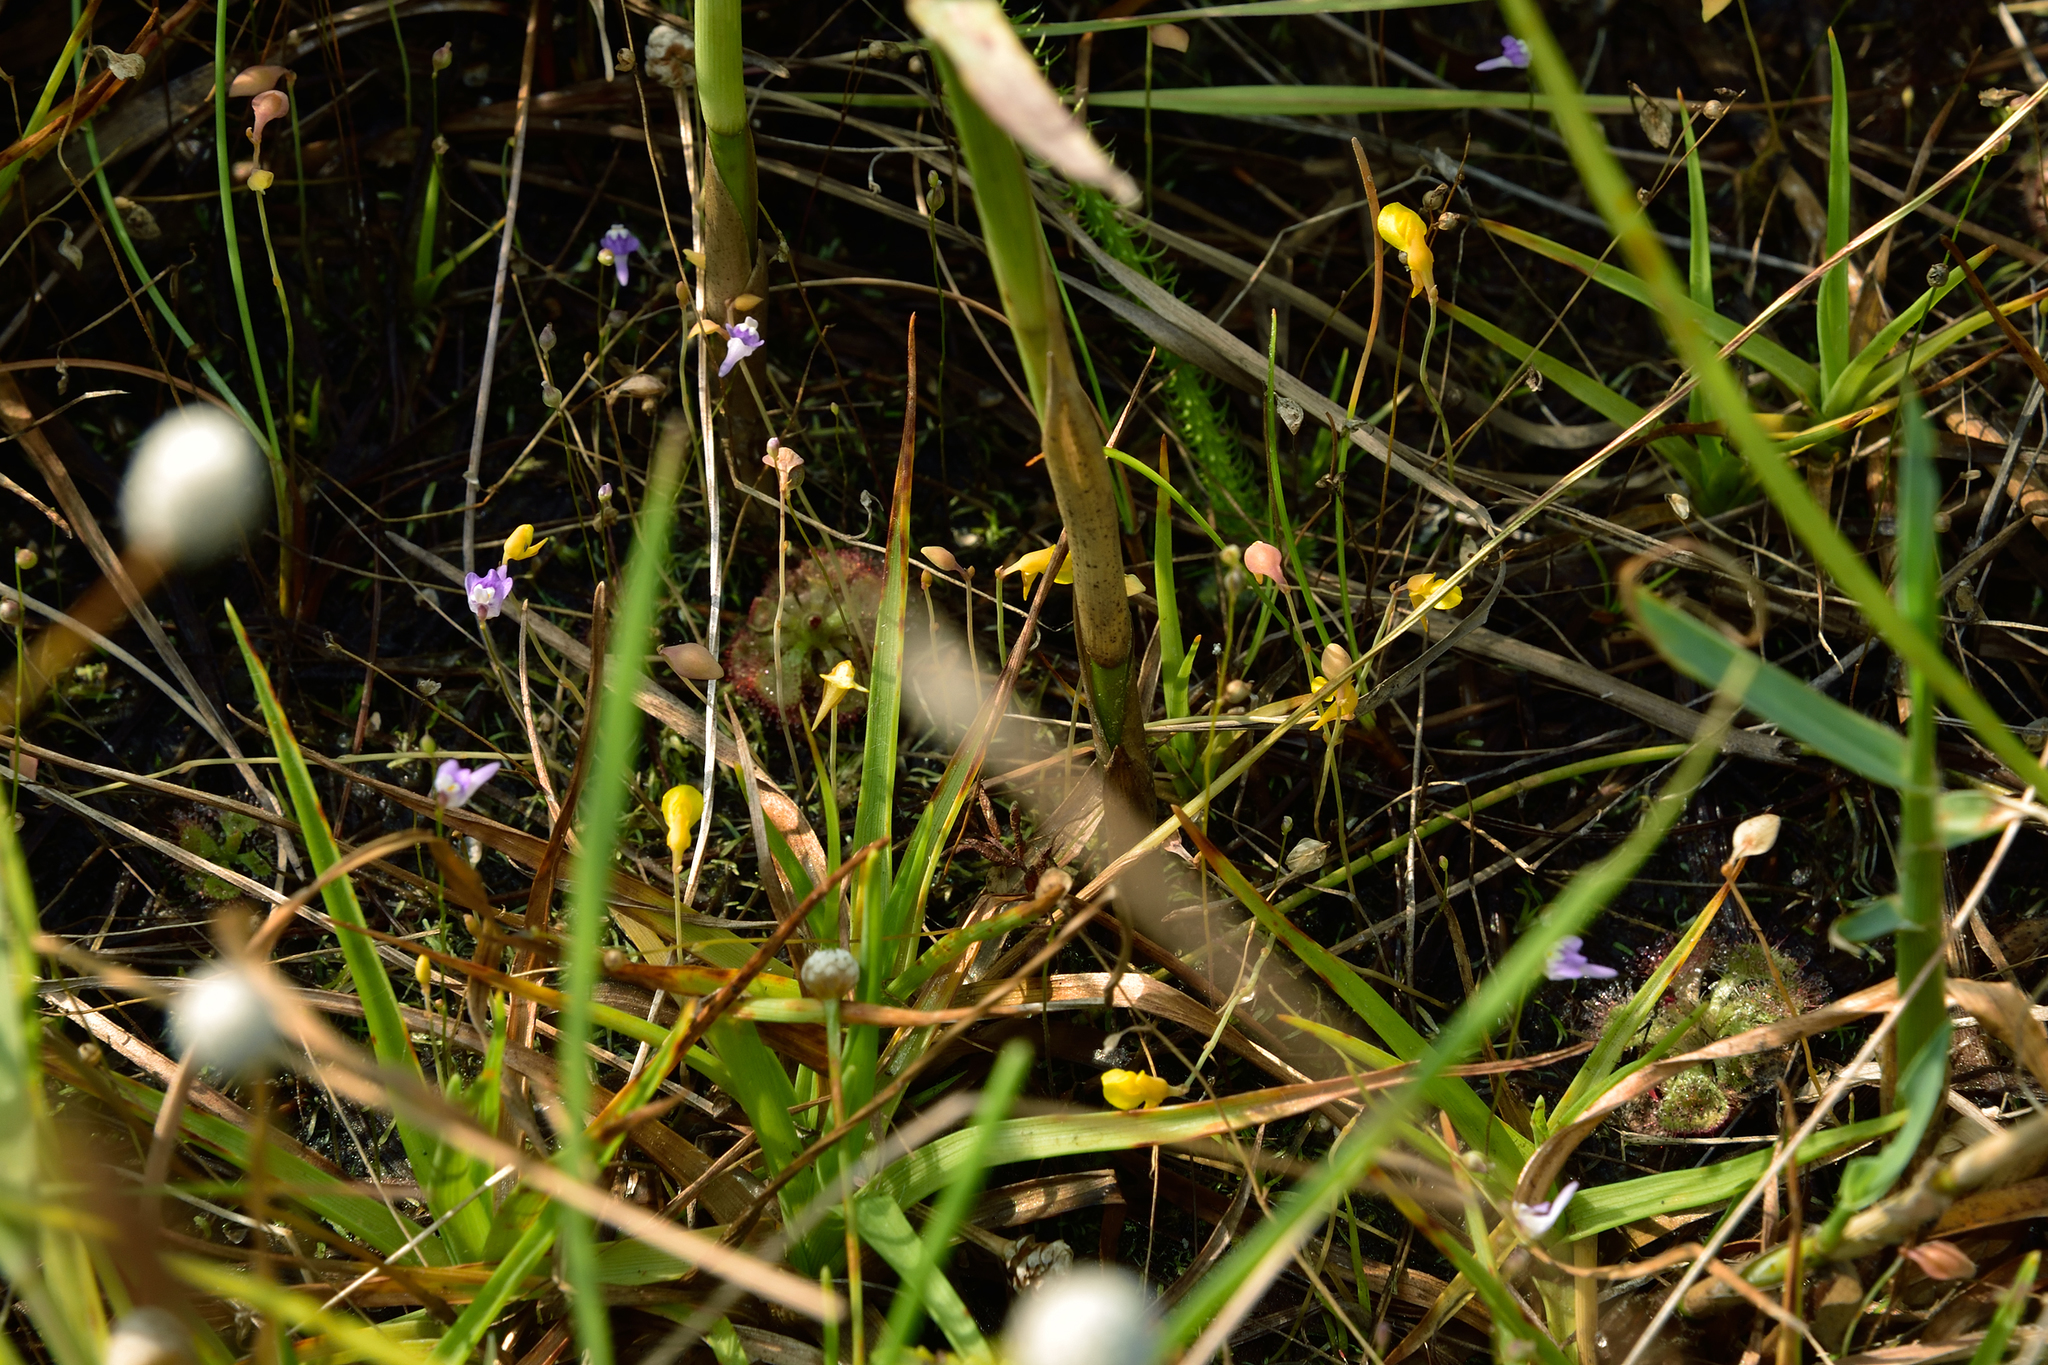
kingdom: Plantae
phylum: Tracheophyta
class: Magnoliopsida
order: Lamiales
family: Lentibulariaceae
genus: Utricularia
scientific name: Utricularia bifida
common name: Bifid bladderwort
